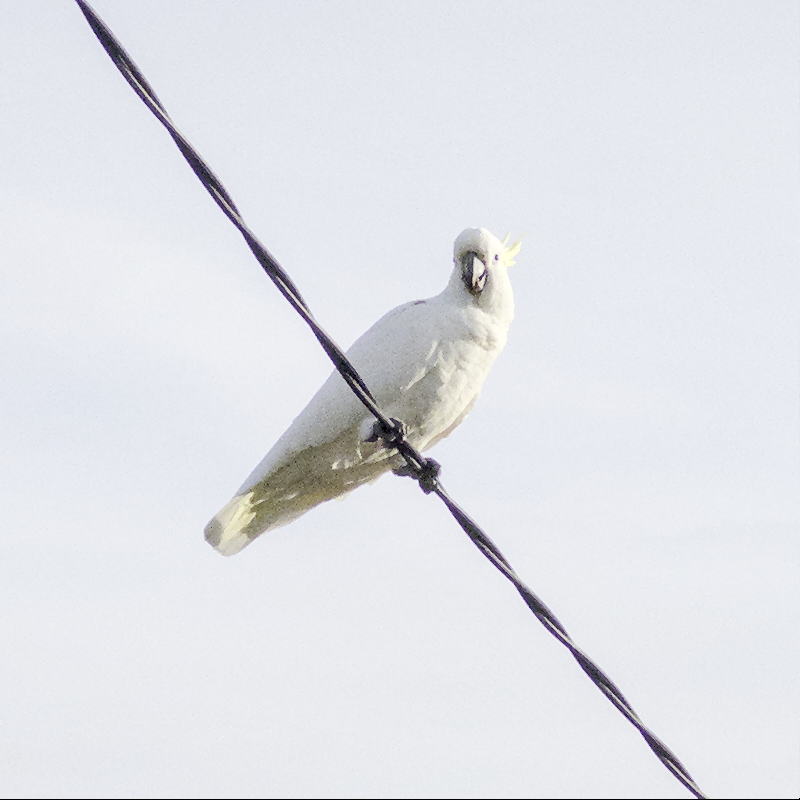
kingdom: Animalia
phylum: Chordata
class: Aves
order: Psittaciformes
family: Psittacidae
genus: Cacatua
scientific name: Cacatua galerita
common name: Sulphur-crested cockatoo
